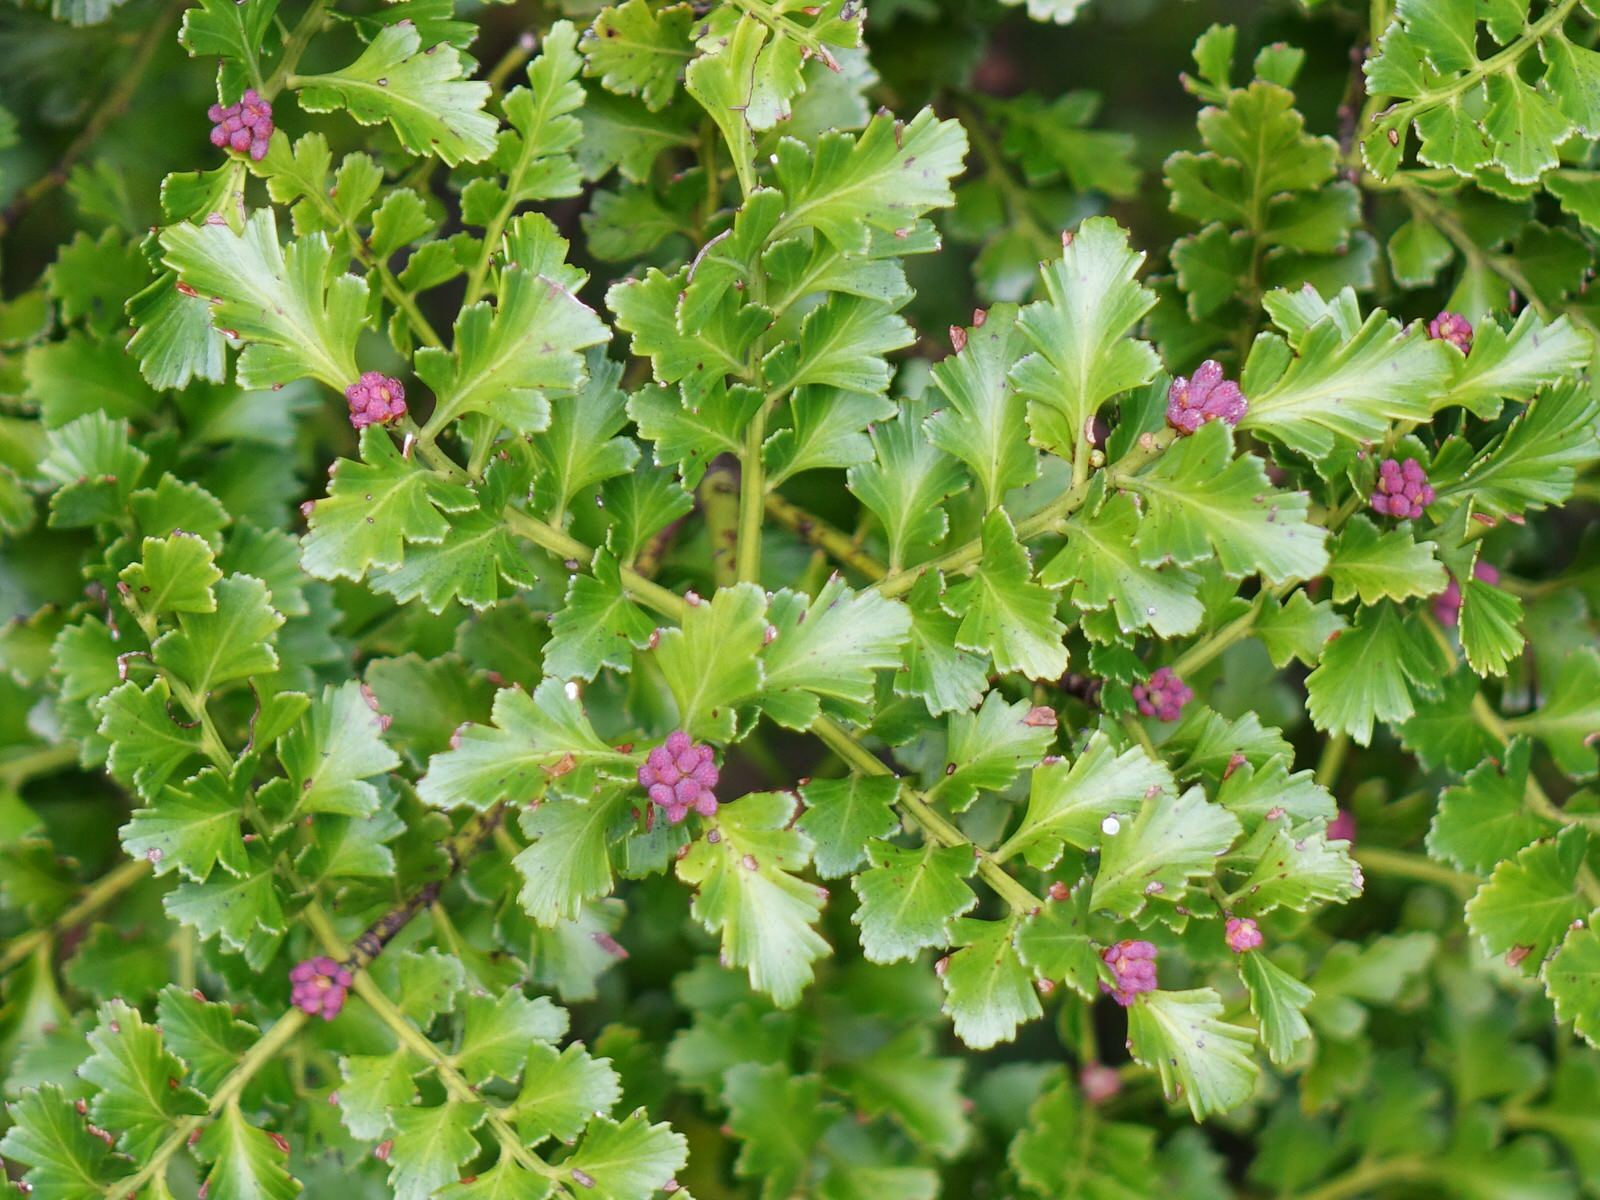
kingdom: Plantae
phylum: Tracheophyta
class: Pinopsida
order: Pinales
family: Phyllocladaceae
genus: Phyllocladus
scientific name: Phyllocladus trichomanoides
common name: Celery pine
